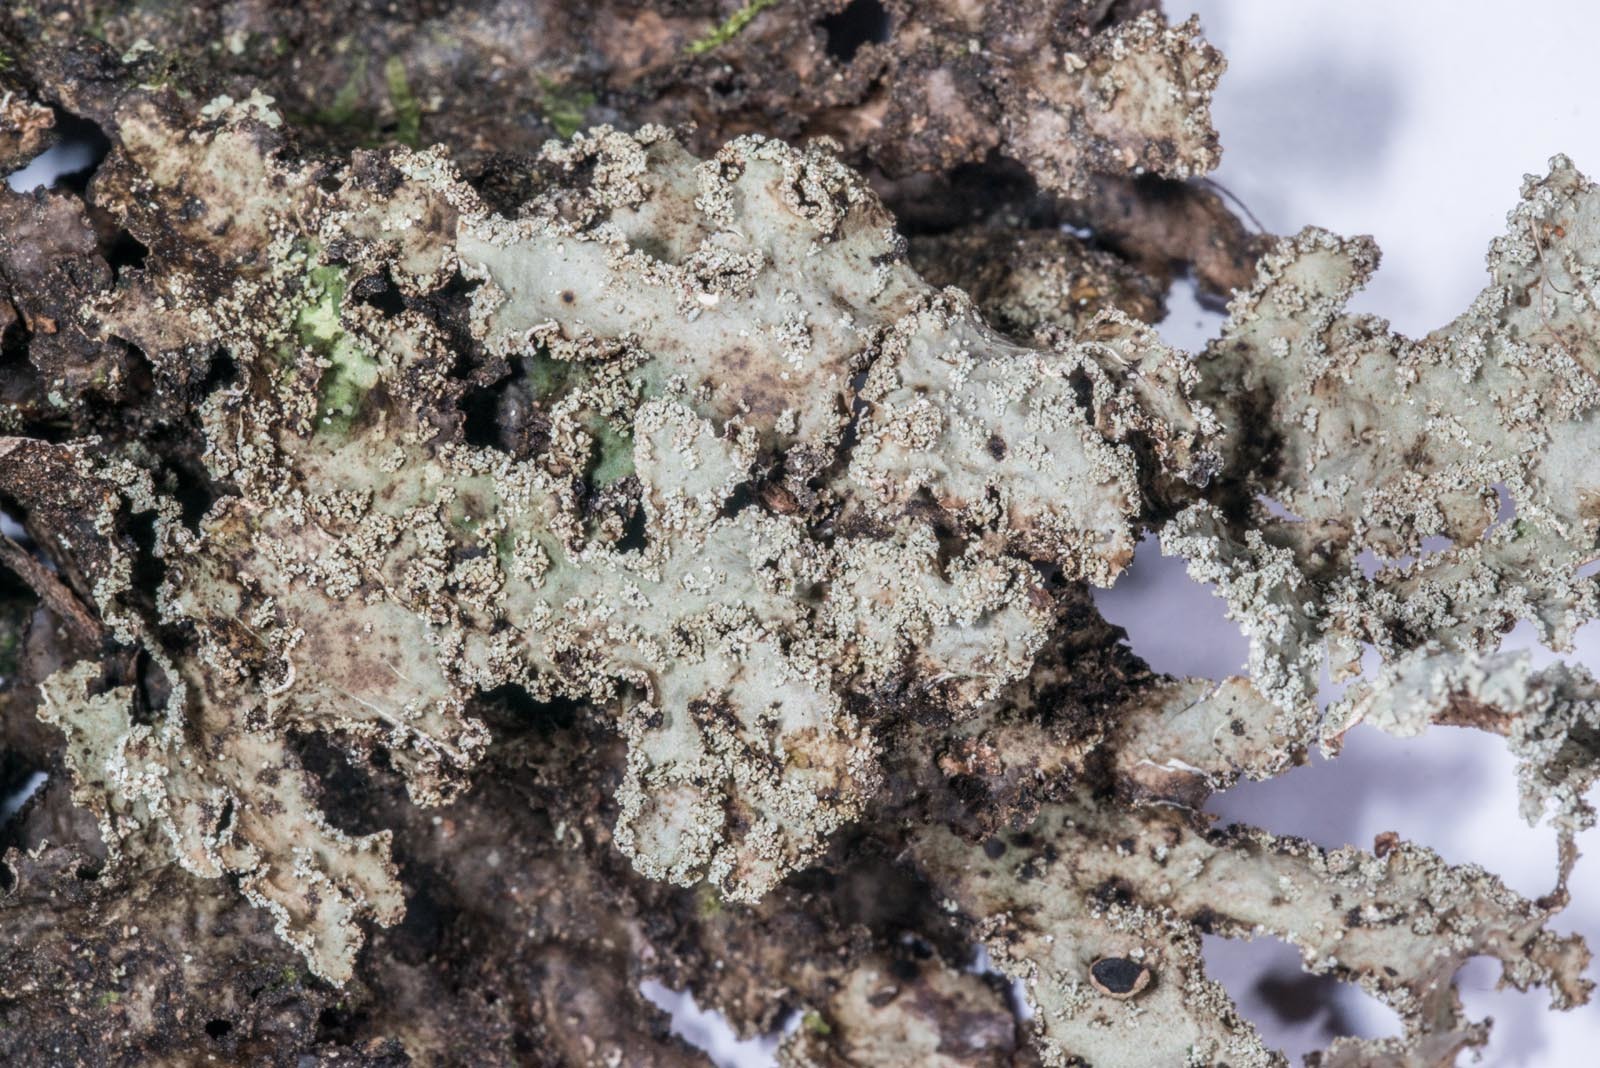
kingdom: Fungi
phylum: Ascomycota
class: Lecanoromycetes
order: Peltigerales
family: Lobariaceae
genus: Pseudocyphellaria
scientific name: Pseudocyphellaria granulata
